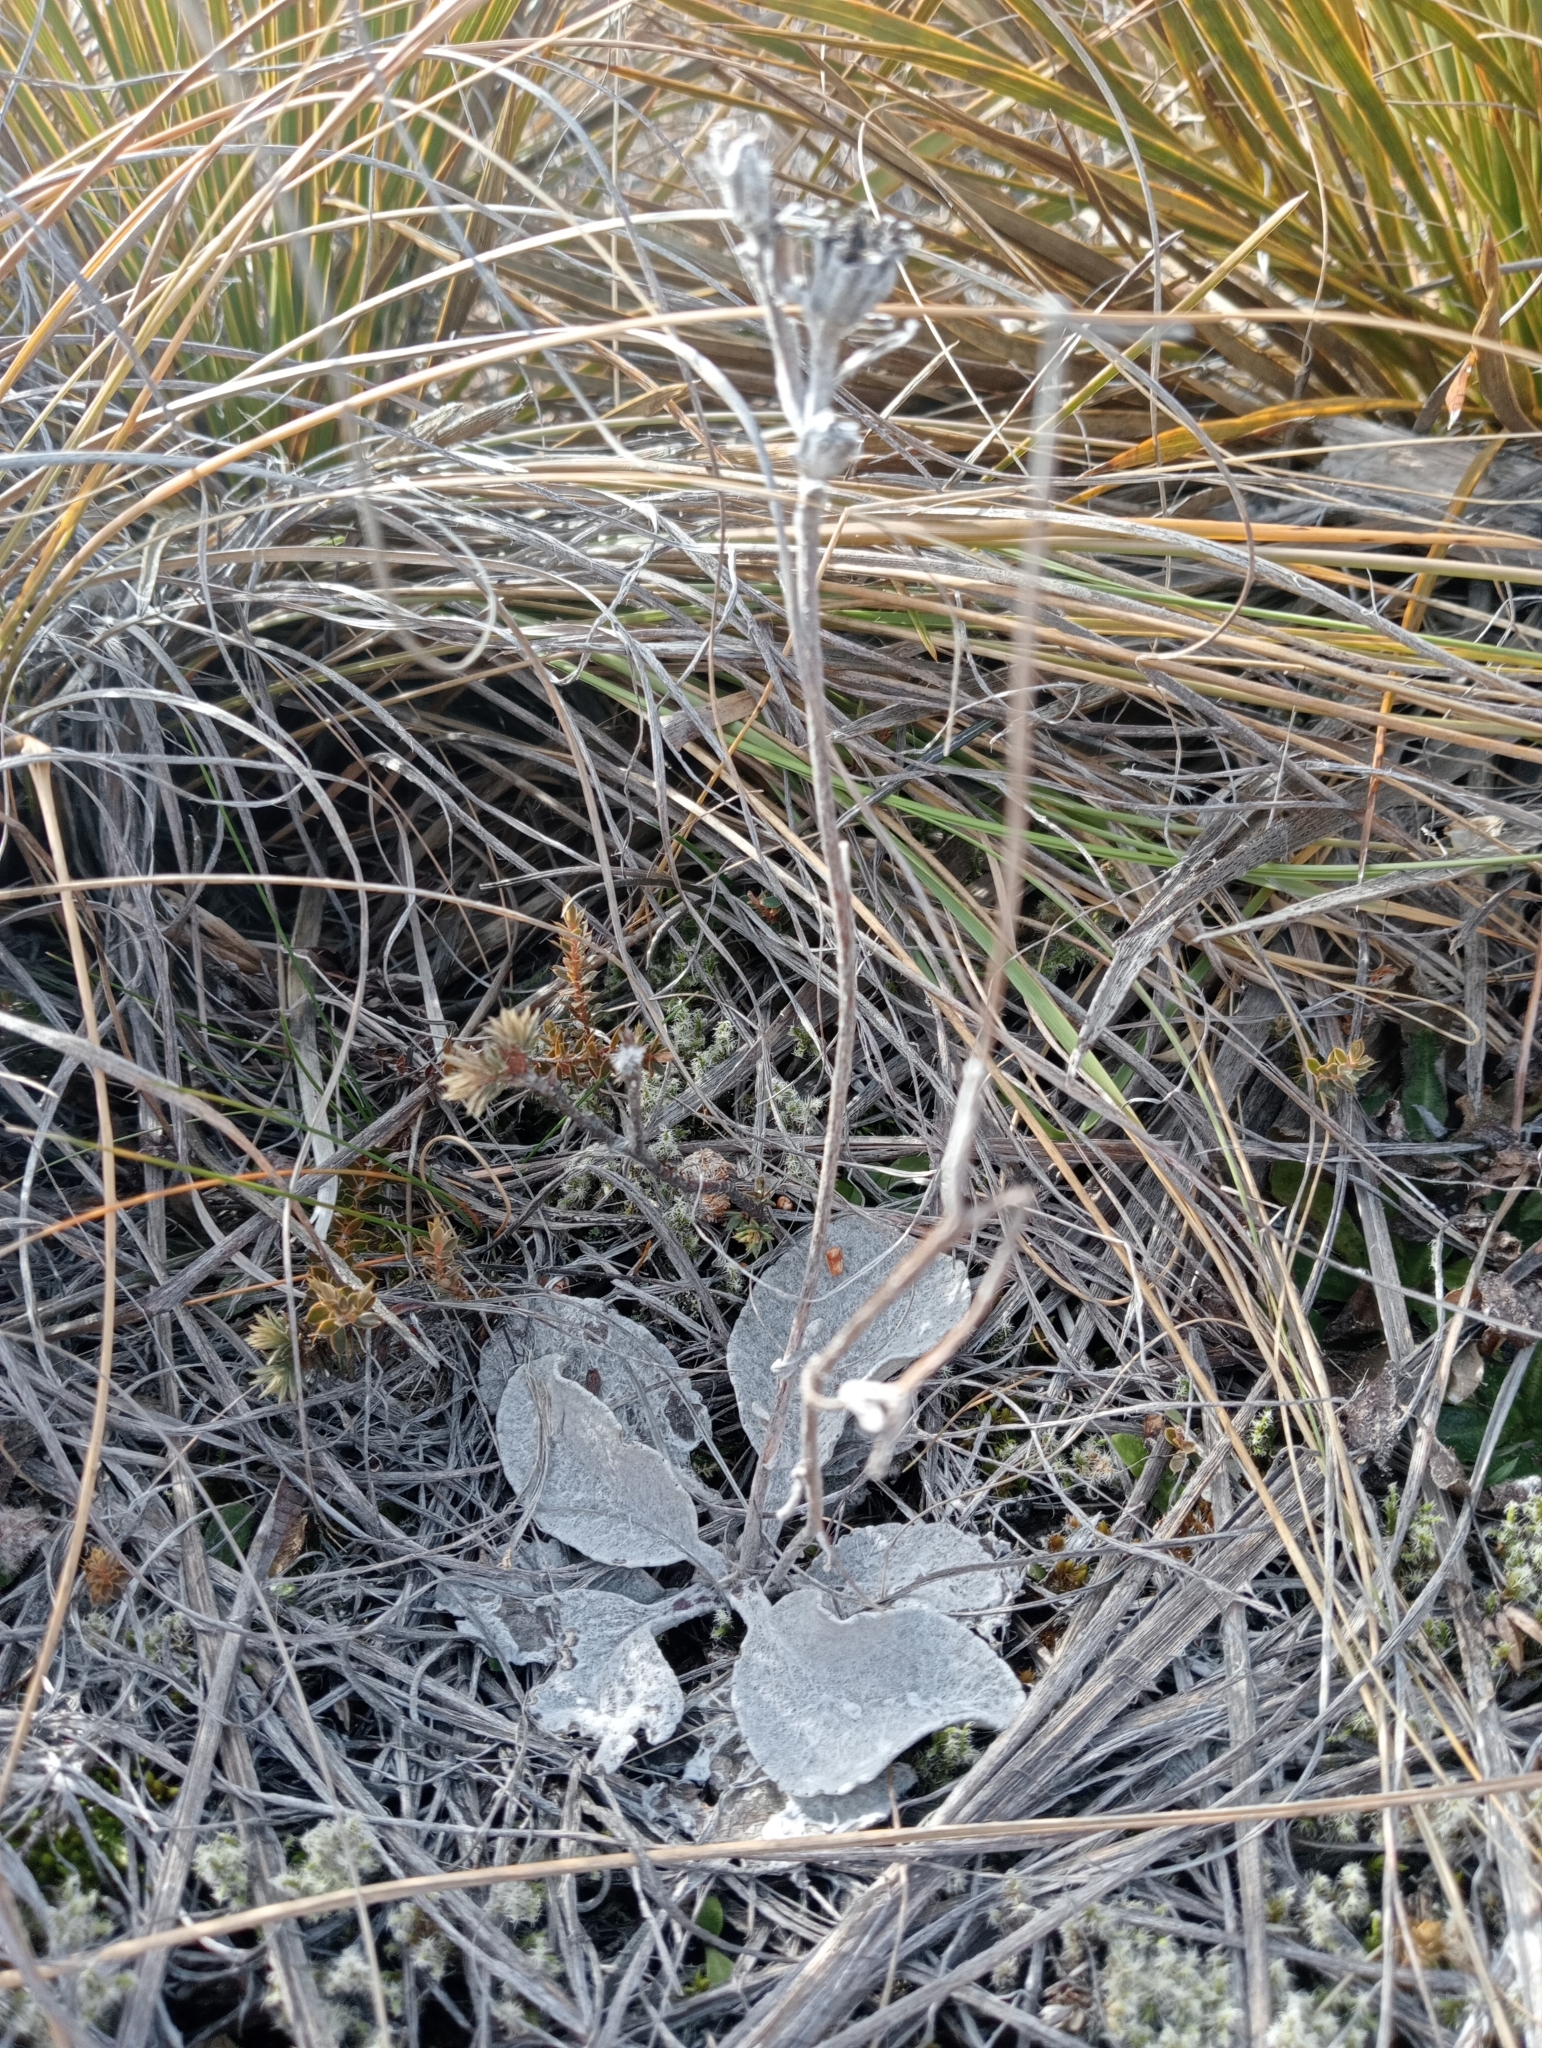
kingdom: Plantae
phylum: Tracheophyta
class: Magnoliopsida
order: Asterales
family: Asteraceae
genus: Brachyglottis
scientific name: Brachyglottis haastii
